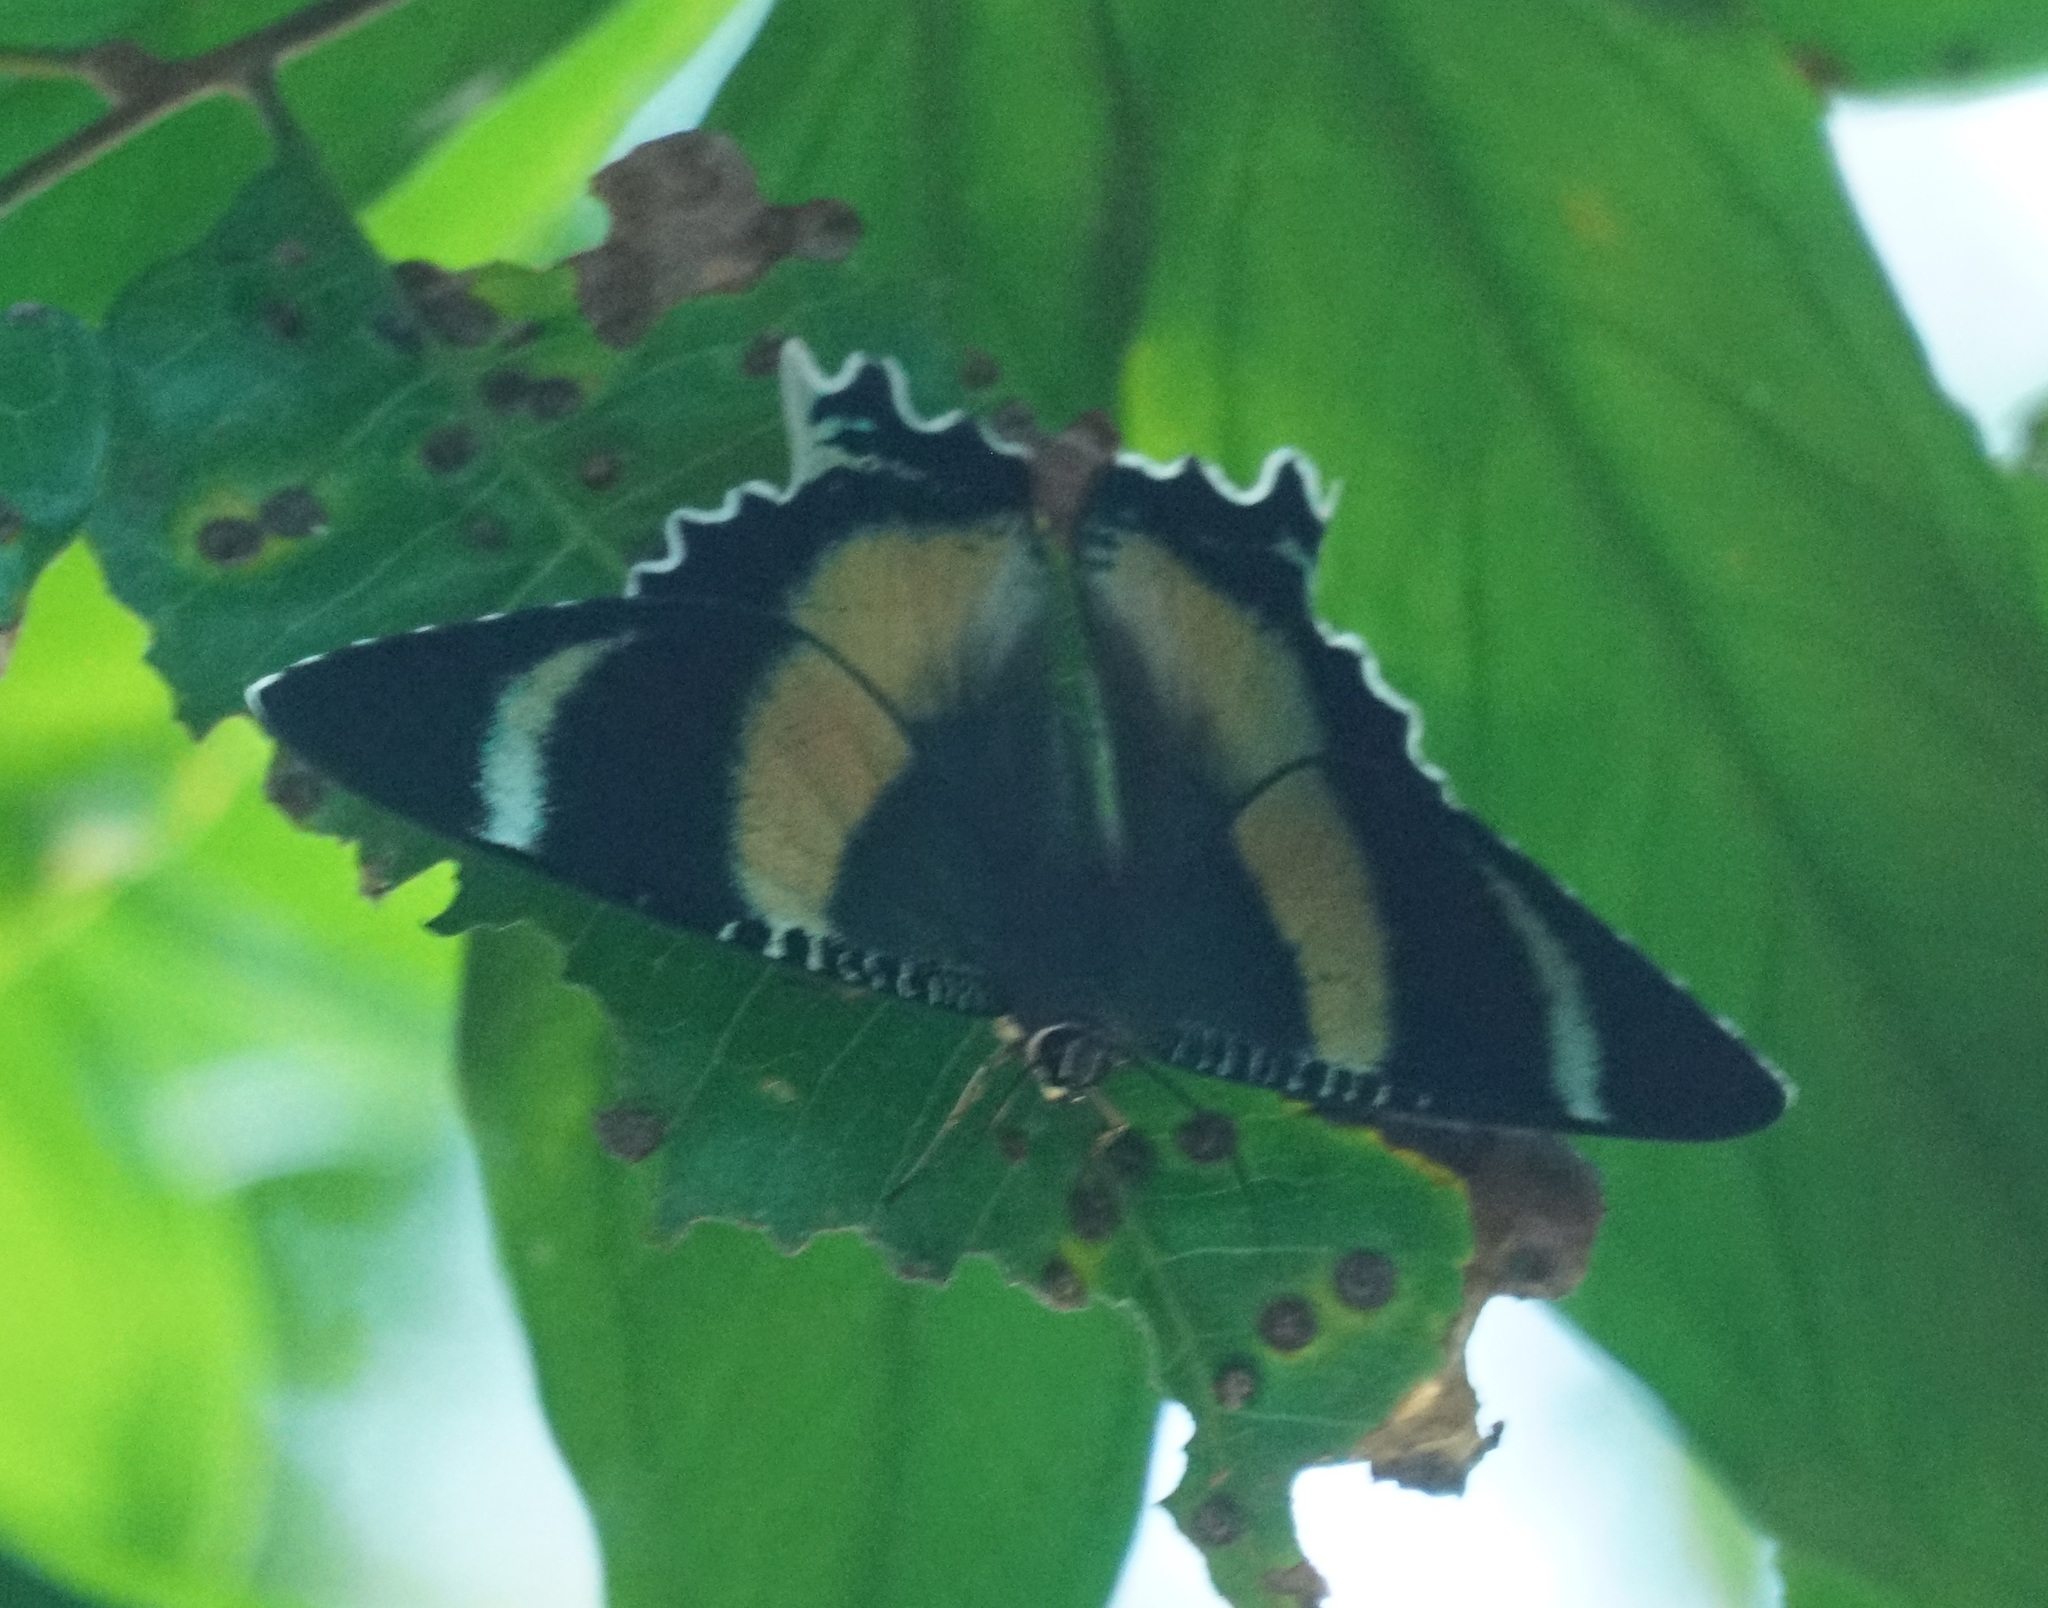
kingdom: Animalia
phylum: Arthropoda
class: Insecta
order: Lepidoptera
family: Uraniidae
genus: Alcides
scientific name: Alcides metaurus
